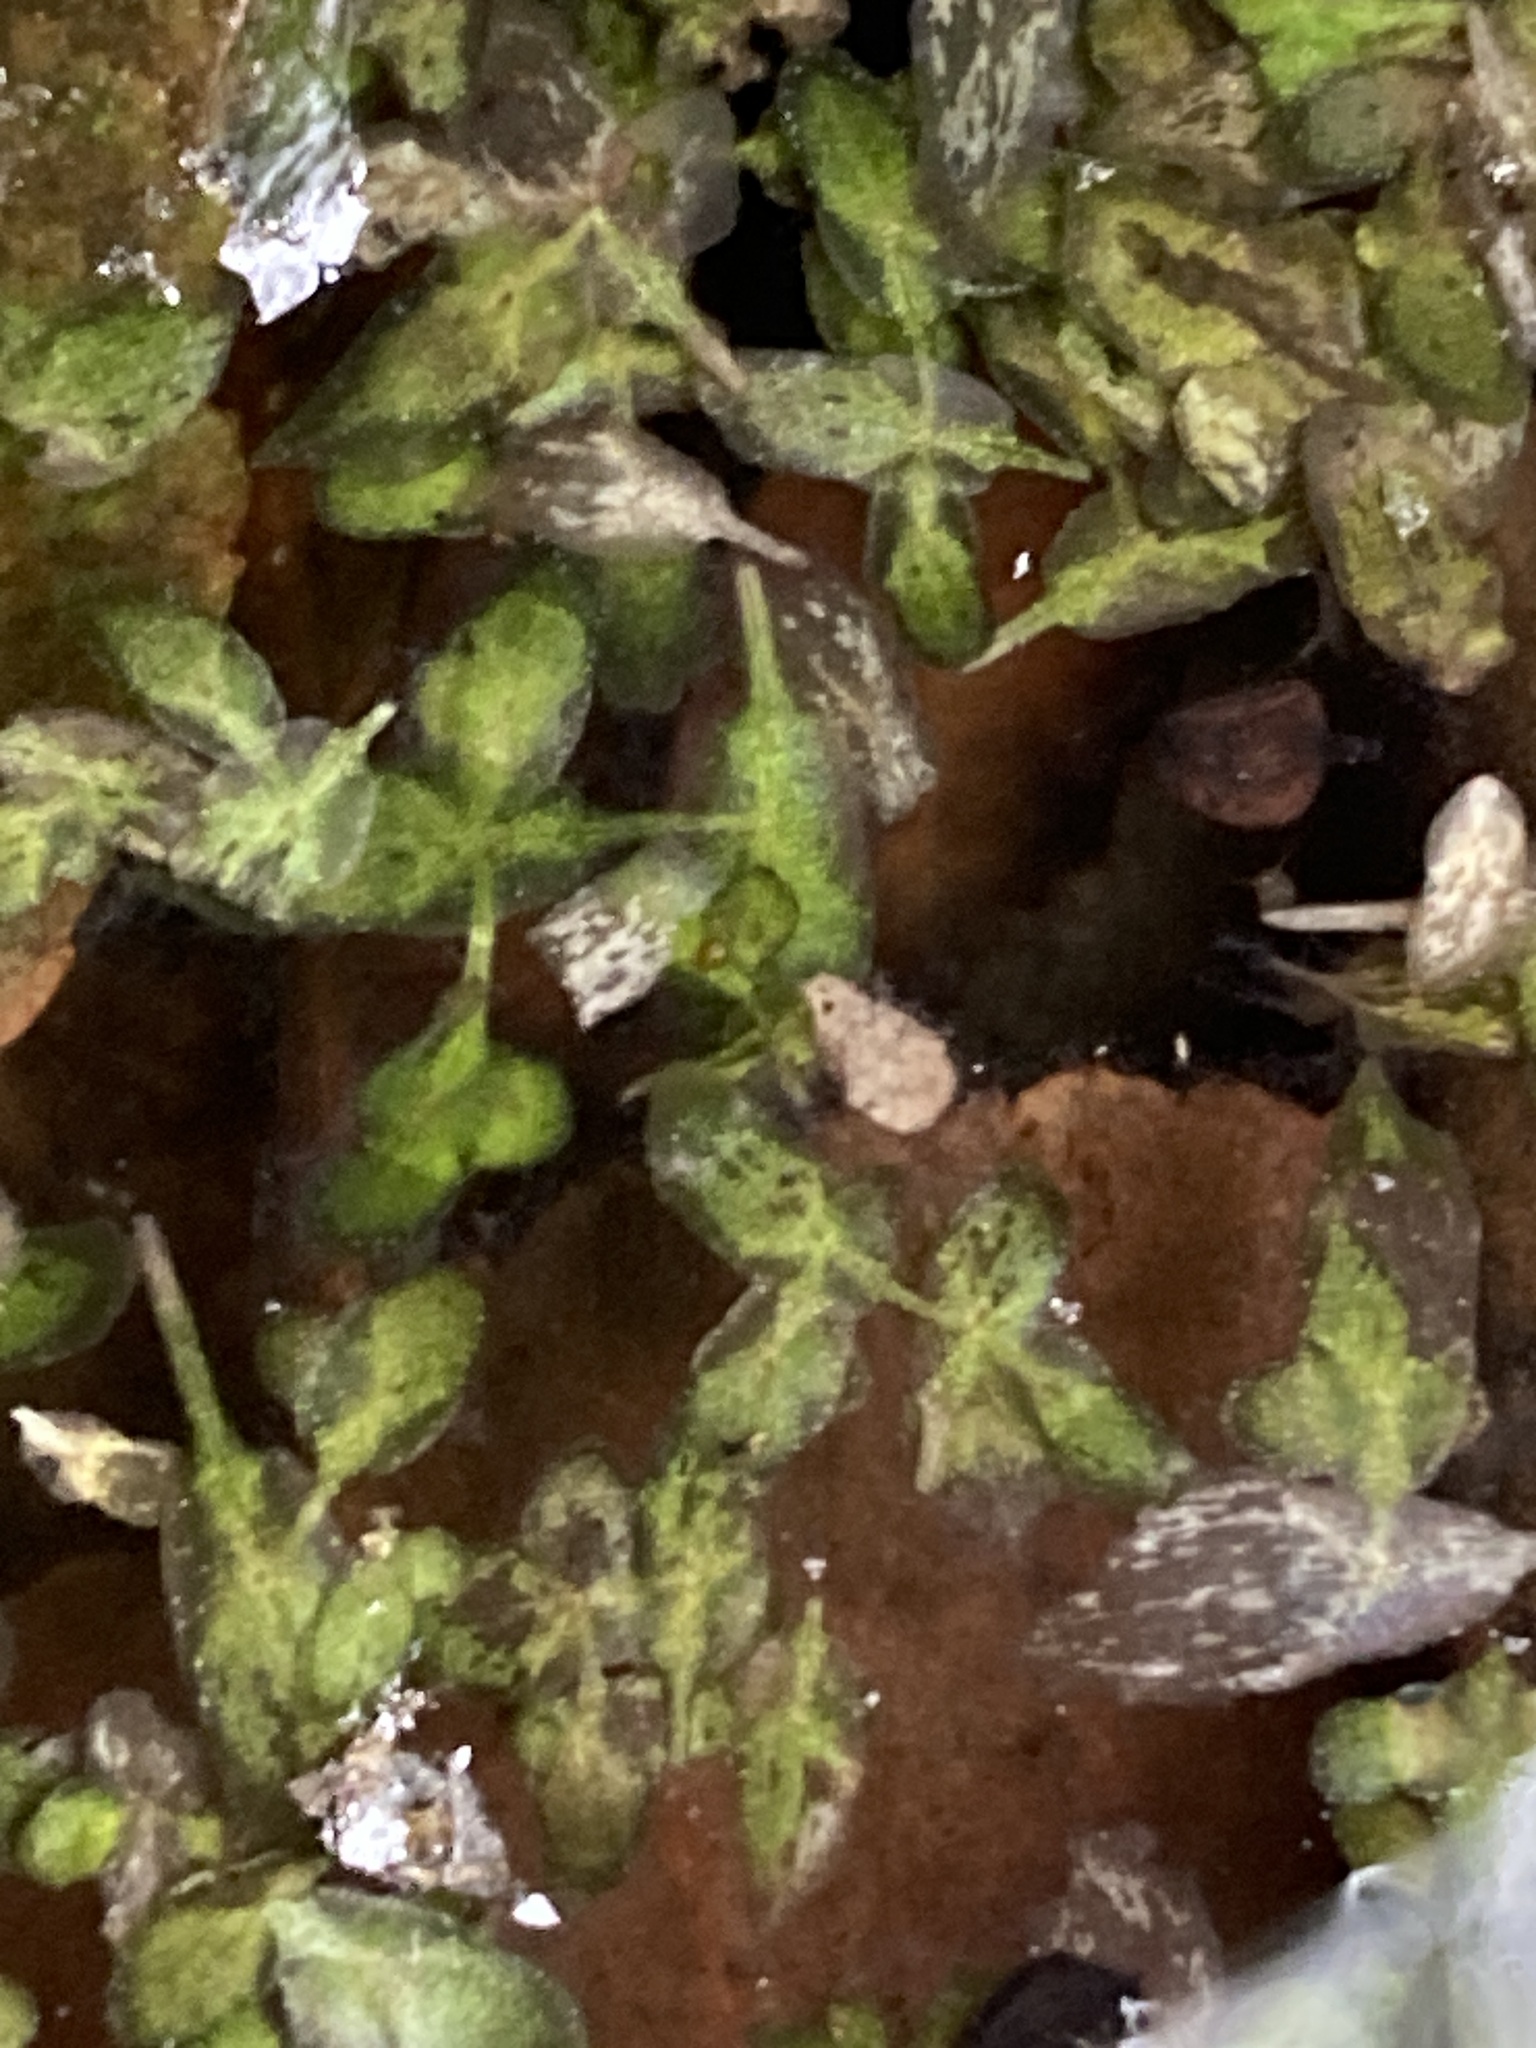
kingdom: Plantae
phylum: Tracheophyta
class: Liliopsida
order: Alismatales
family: Araceae
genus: Lemna
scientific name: Lemna trisulca
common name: Ivy-leaved duckweed
